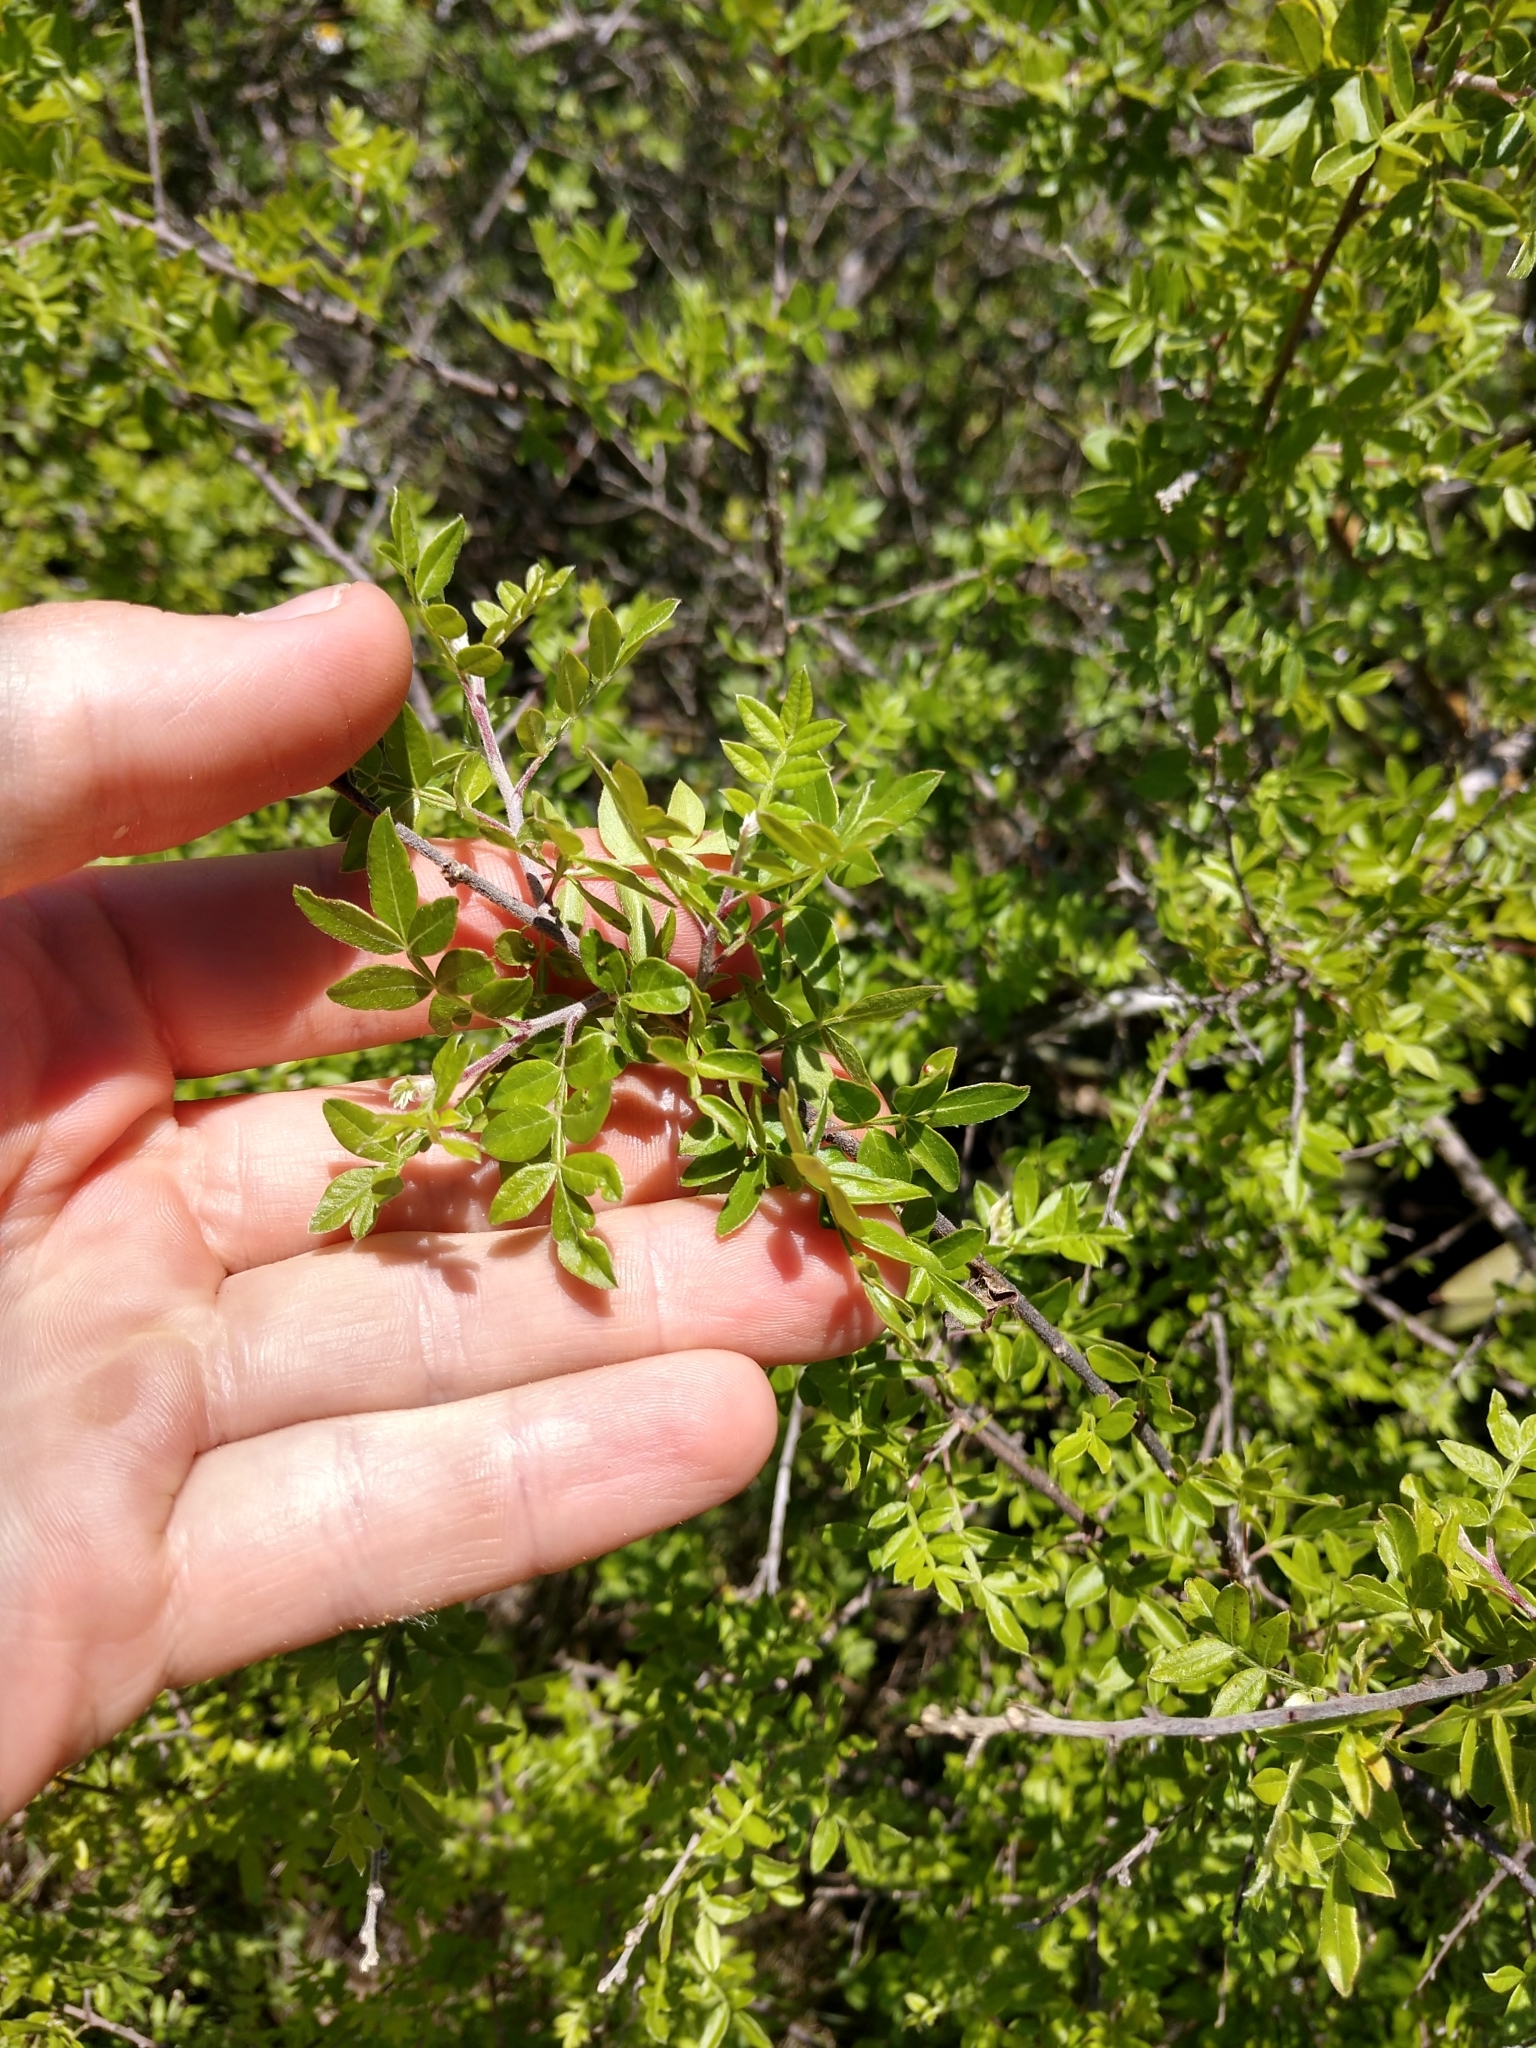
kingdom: Plantae
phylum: Tracheophyta
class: Magnoliopsida
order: Sapindales
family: Anacardiaceae
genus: Rhus
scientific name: Rhus microphylla
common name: Desert sumac
